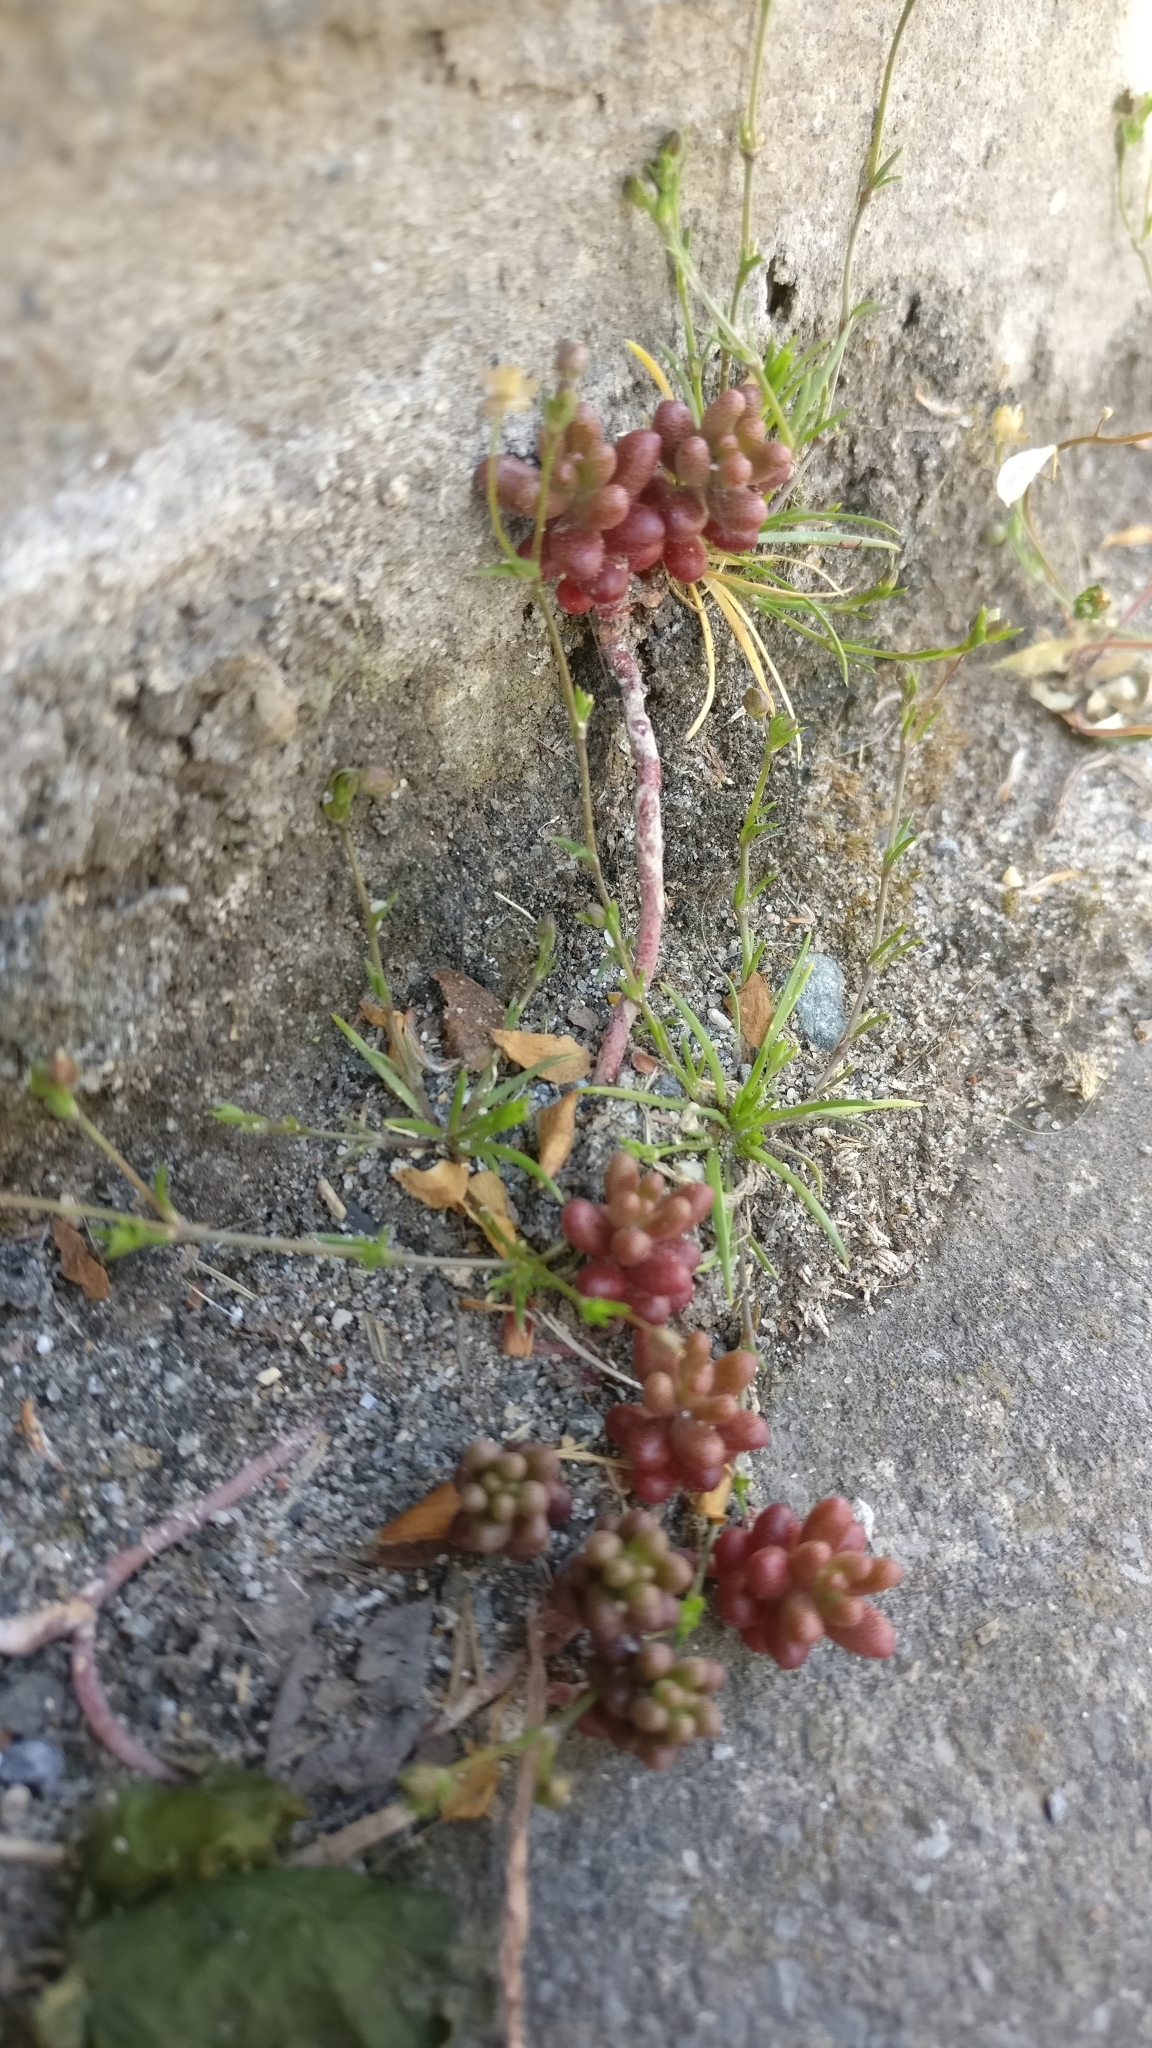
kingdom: Plantae
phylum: Tracheophyta
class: Magnoliopsida
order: Saxifragales
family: Crassulaceae
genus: Sedum
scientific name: Sedum album
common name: White stonecrop
